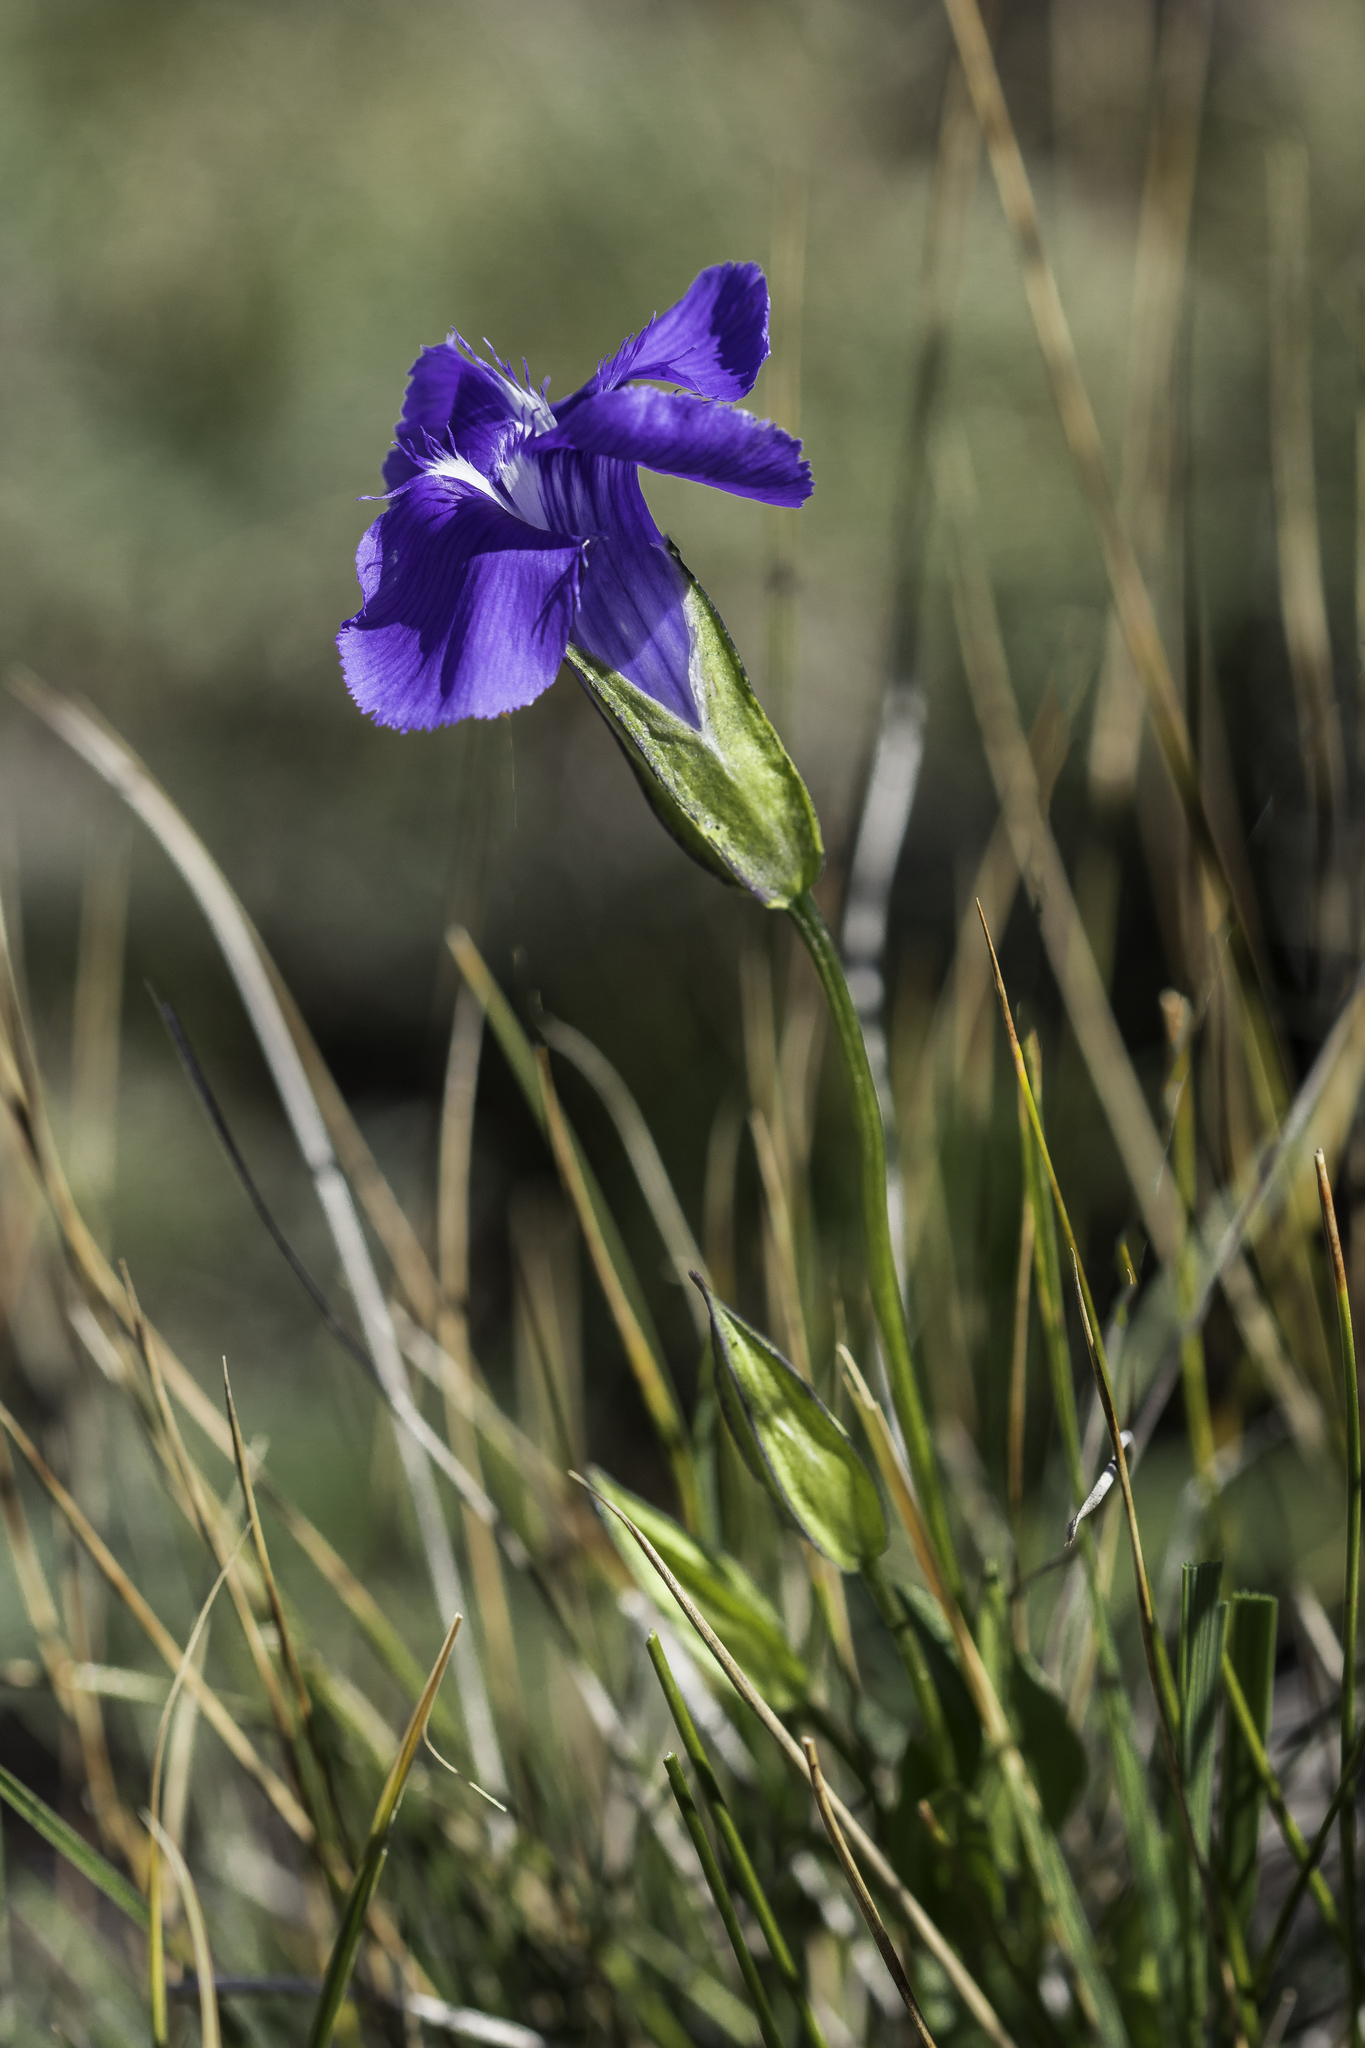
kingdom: Plantae
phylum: Tracheophyta
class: Magnoliopsida
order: Gentianales
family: Gentianaceae
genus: Gentianopsis
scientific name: Gentianopsis thermalis
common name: Rocky mountain fringed-gentian
